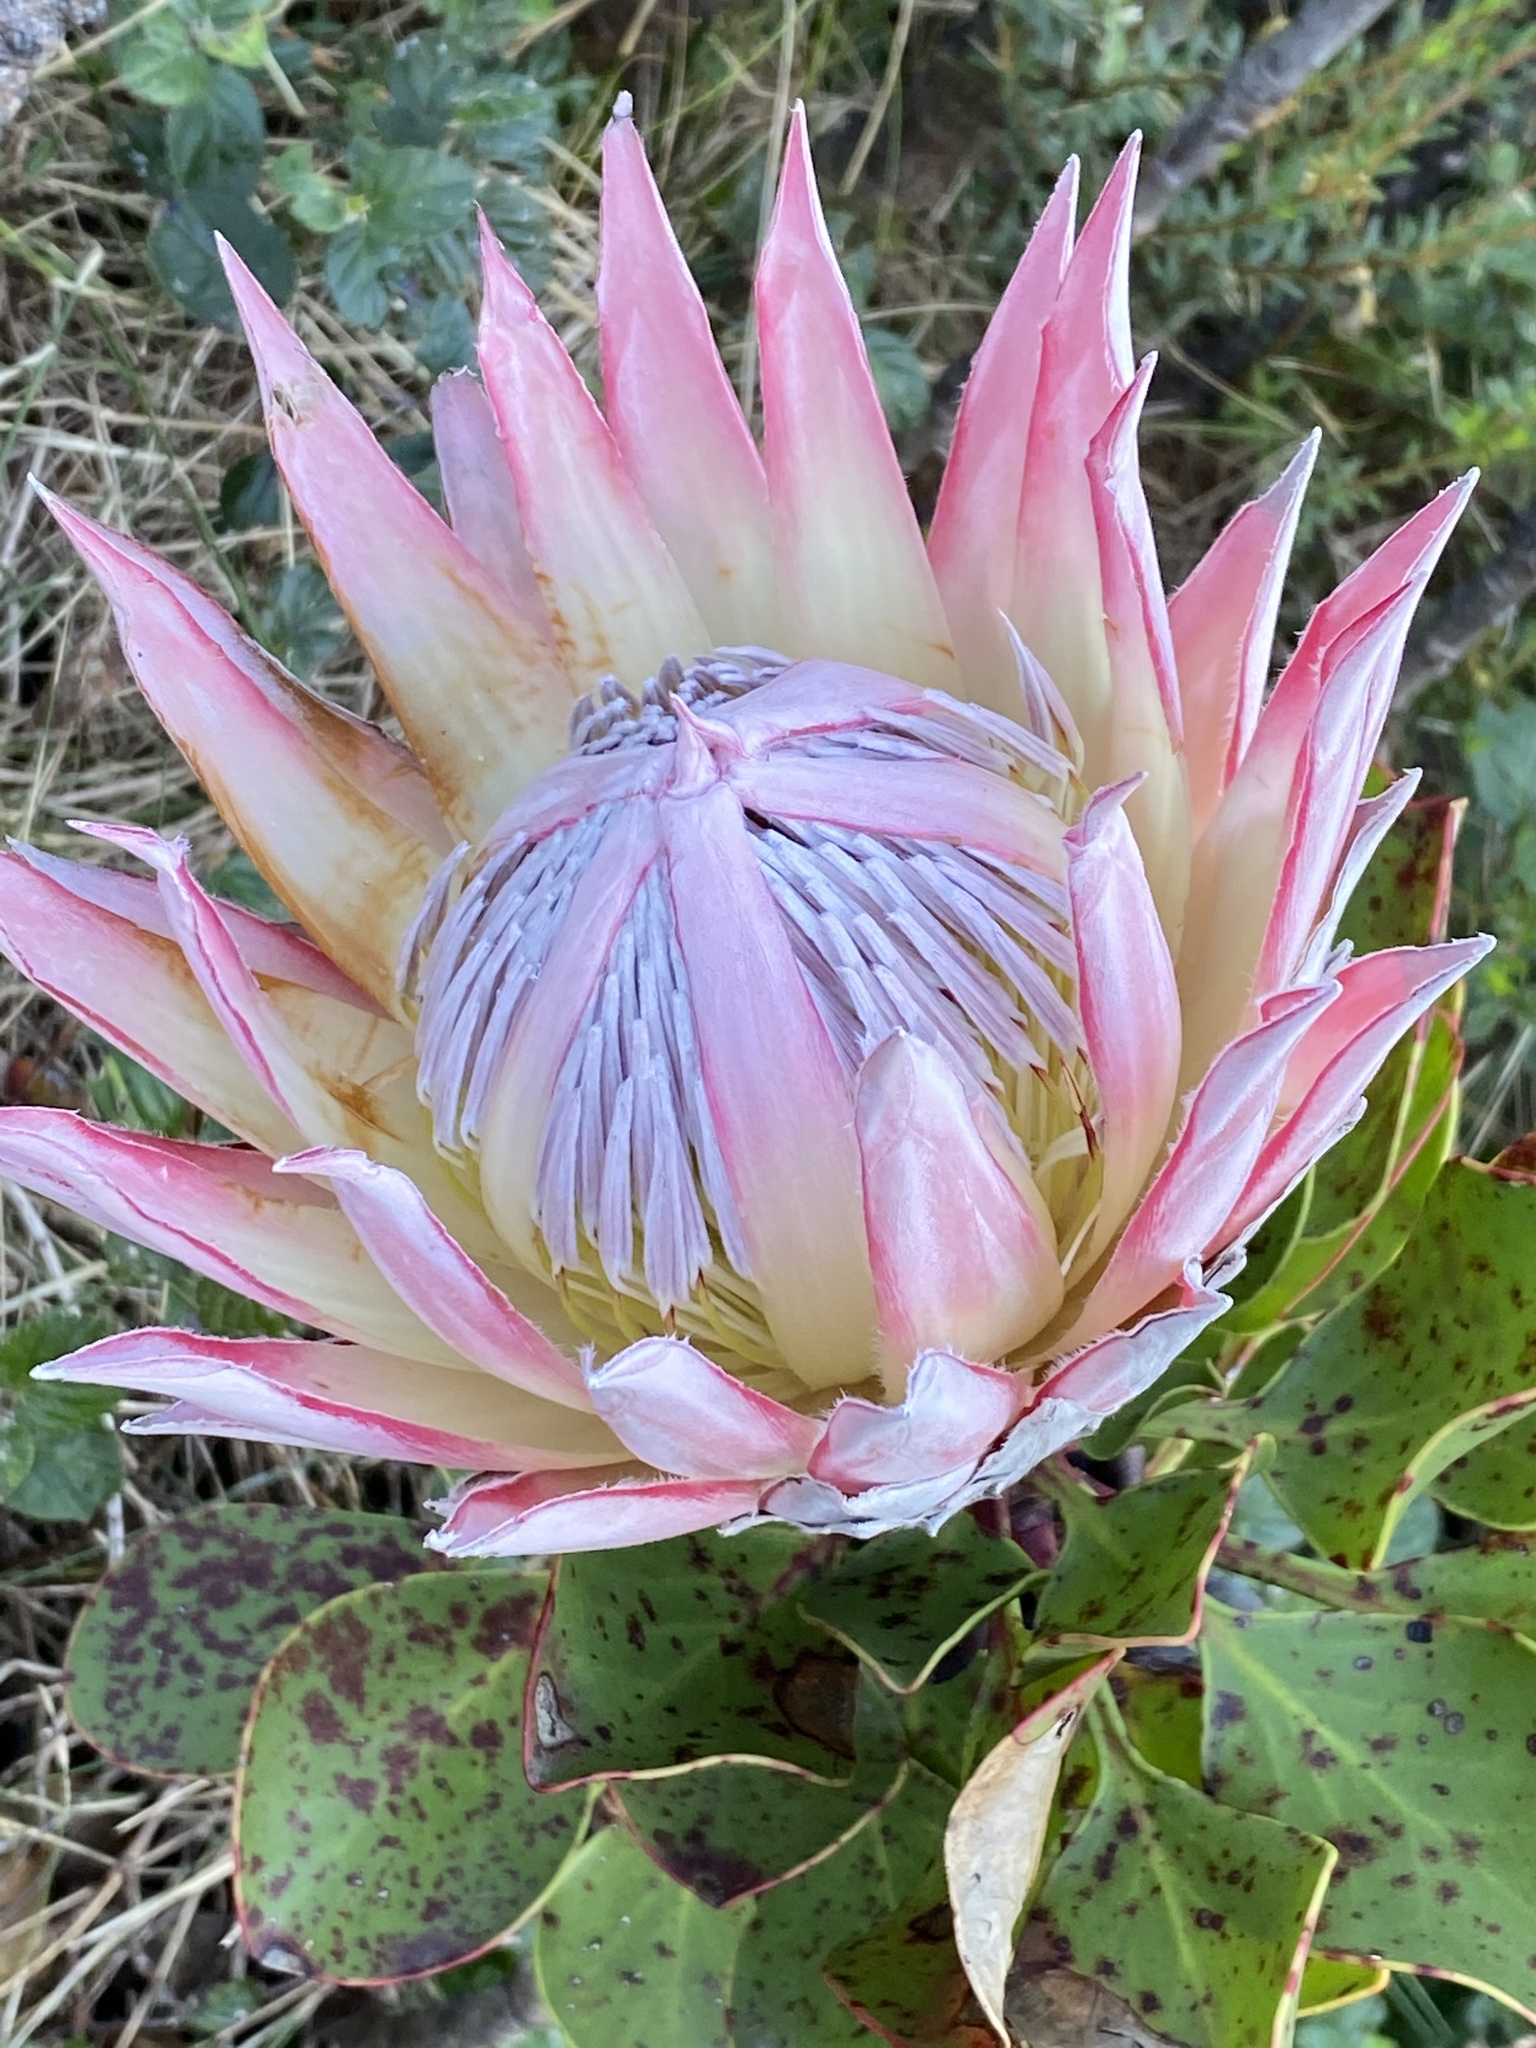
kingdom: Plantae
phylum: Tracheophyta
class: Magnoliopsida
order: Proteales
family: Proteaceae
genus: Protea
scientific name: Protea cynaroides
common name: King protea
